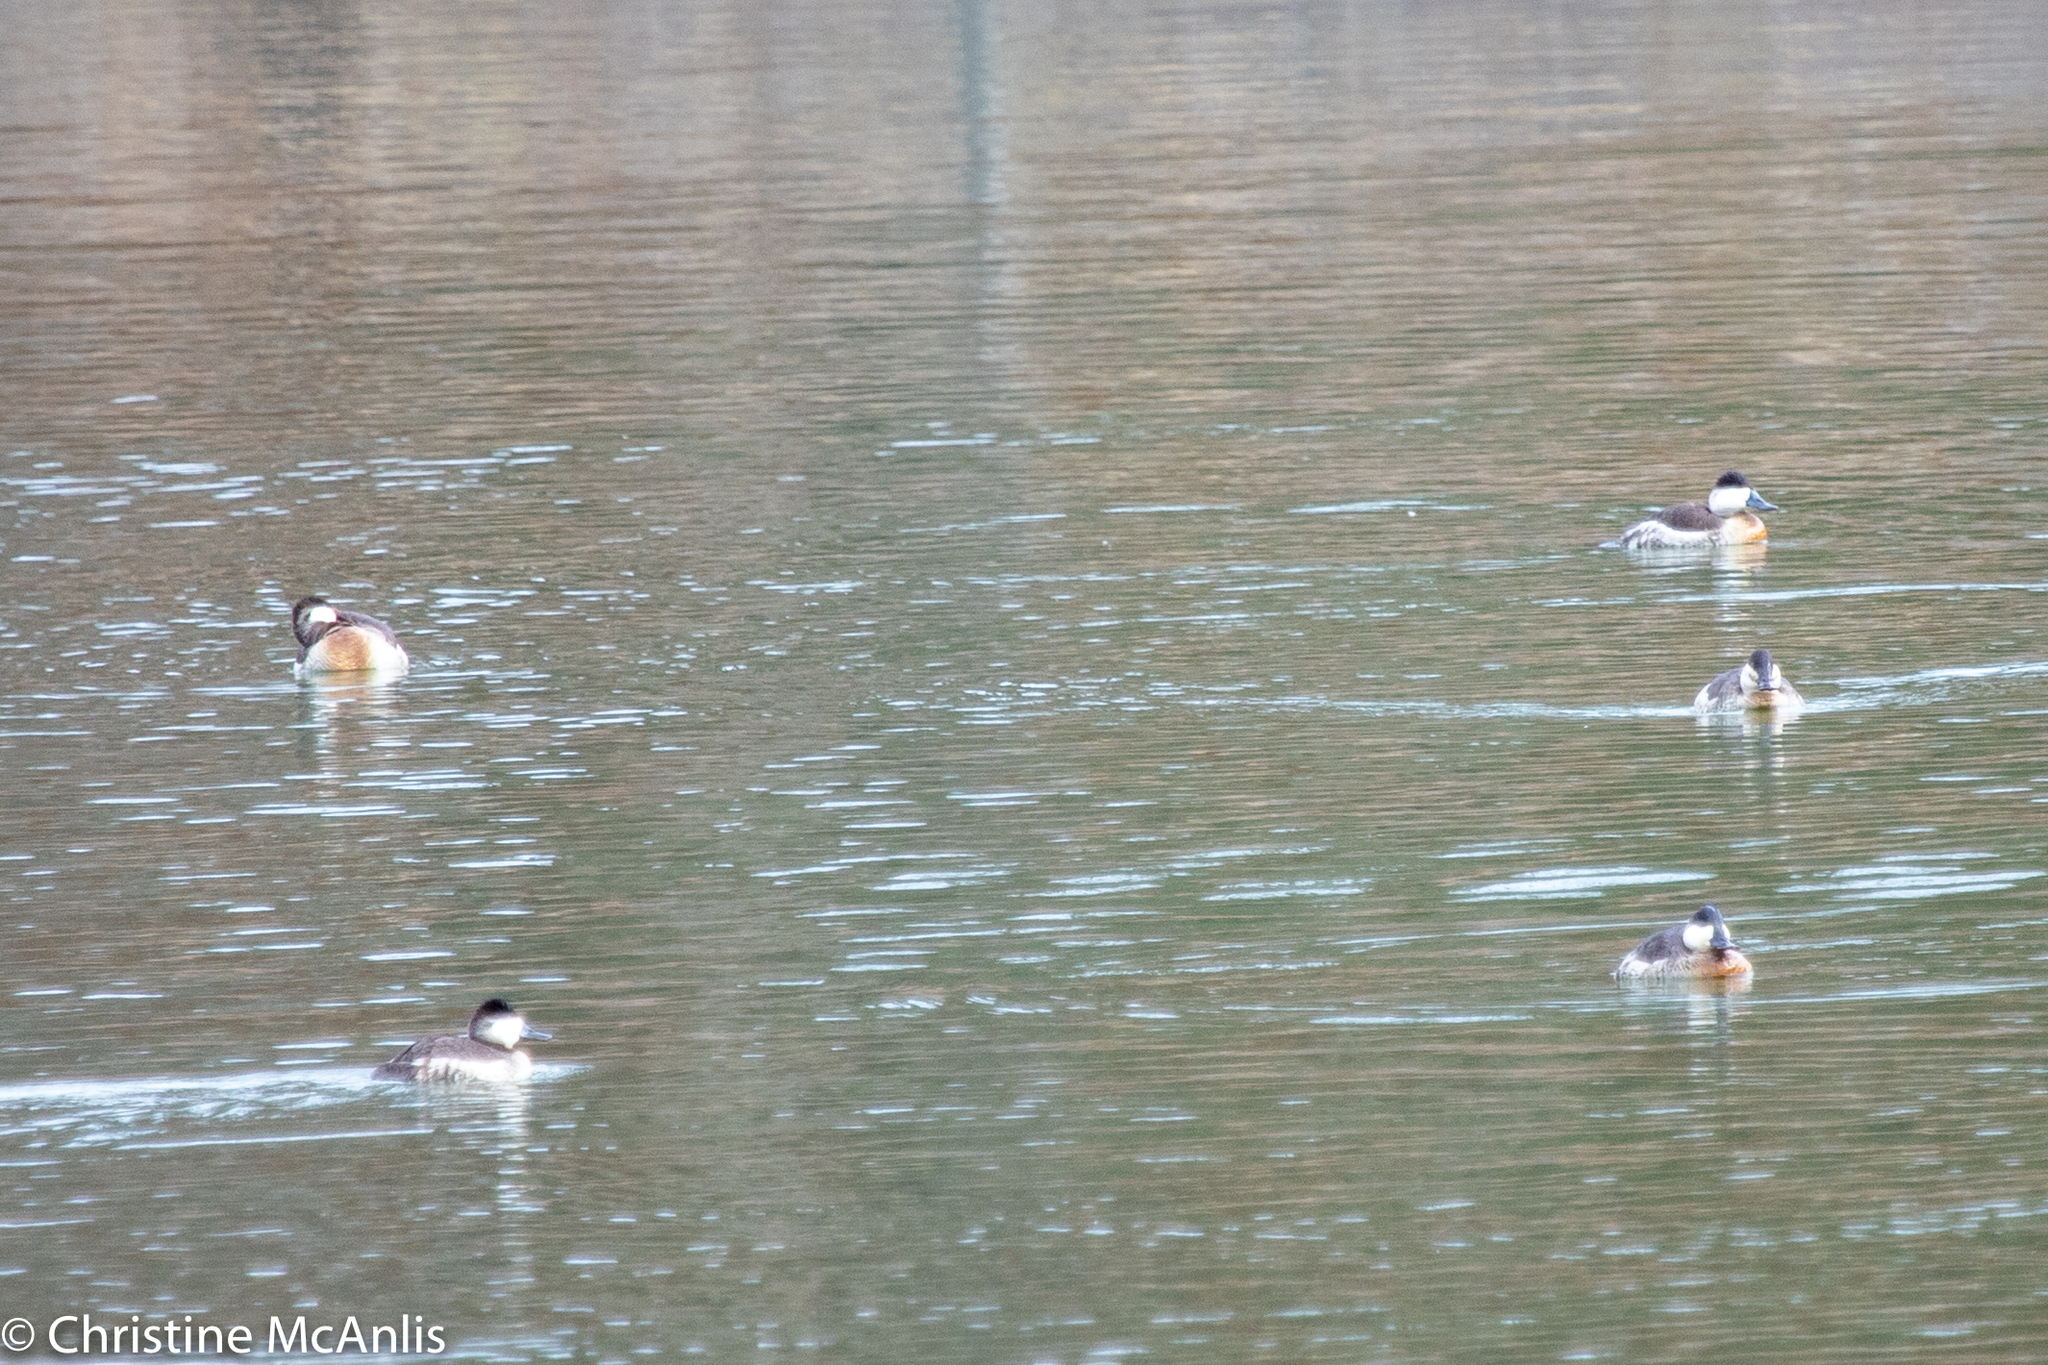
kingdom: Animalia
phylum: Chordata
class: Aves
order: Anseriformes
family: Anatidae
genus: Oxyura
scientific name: Oxyura jamaicensis
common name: Ruddy duck
